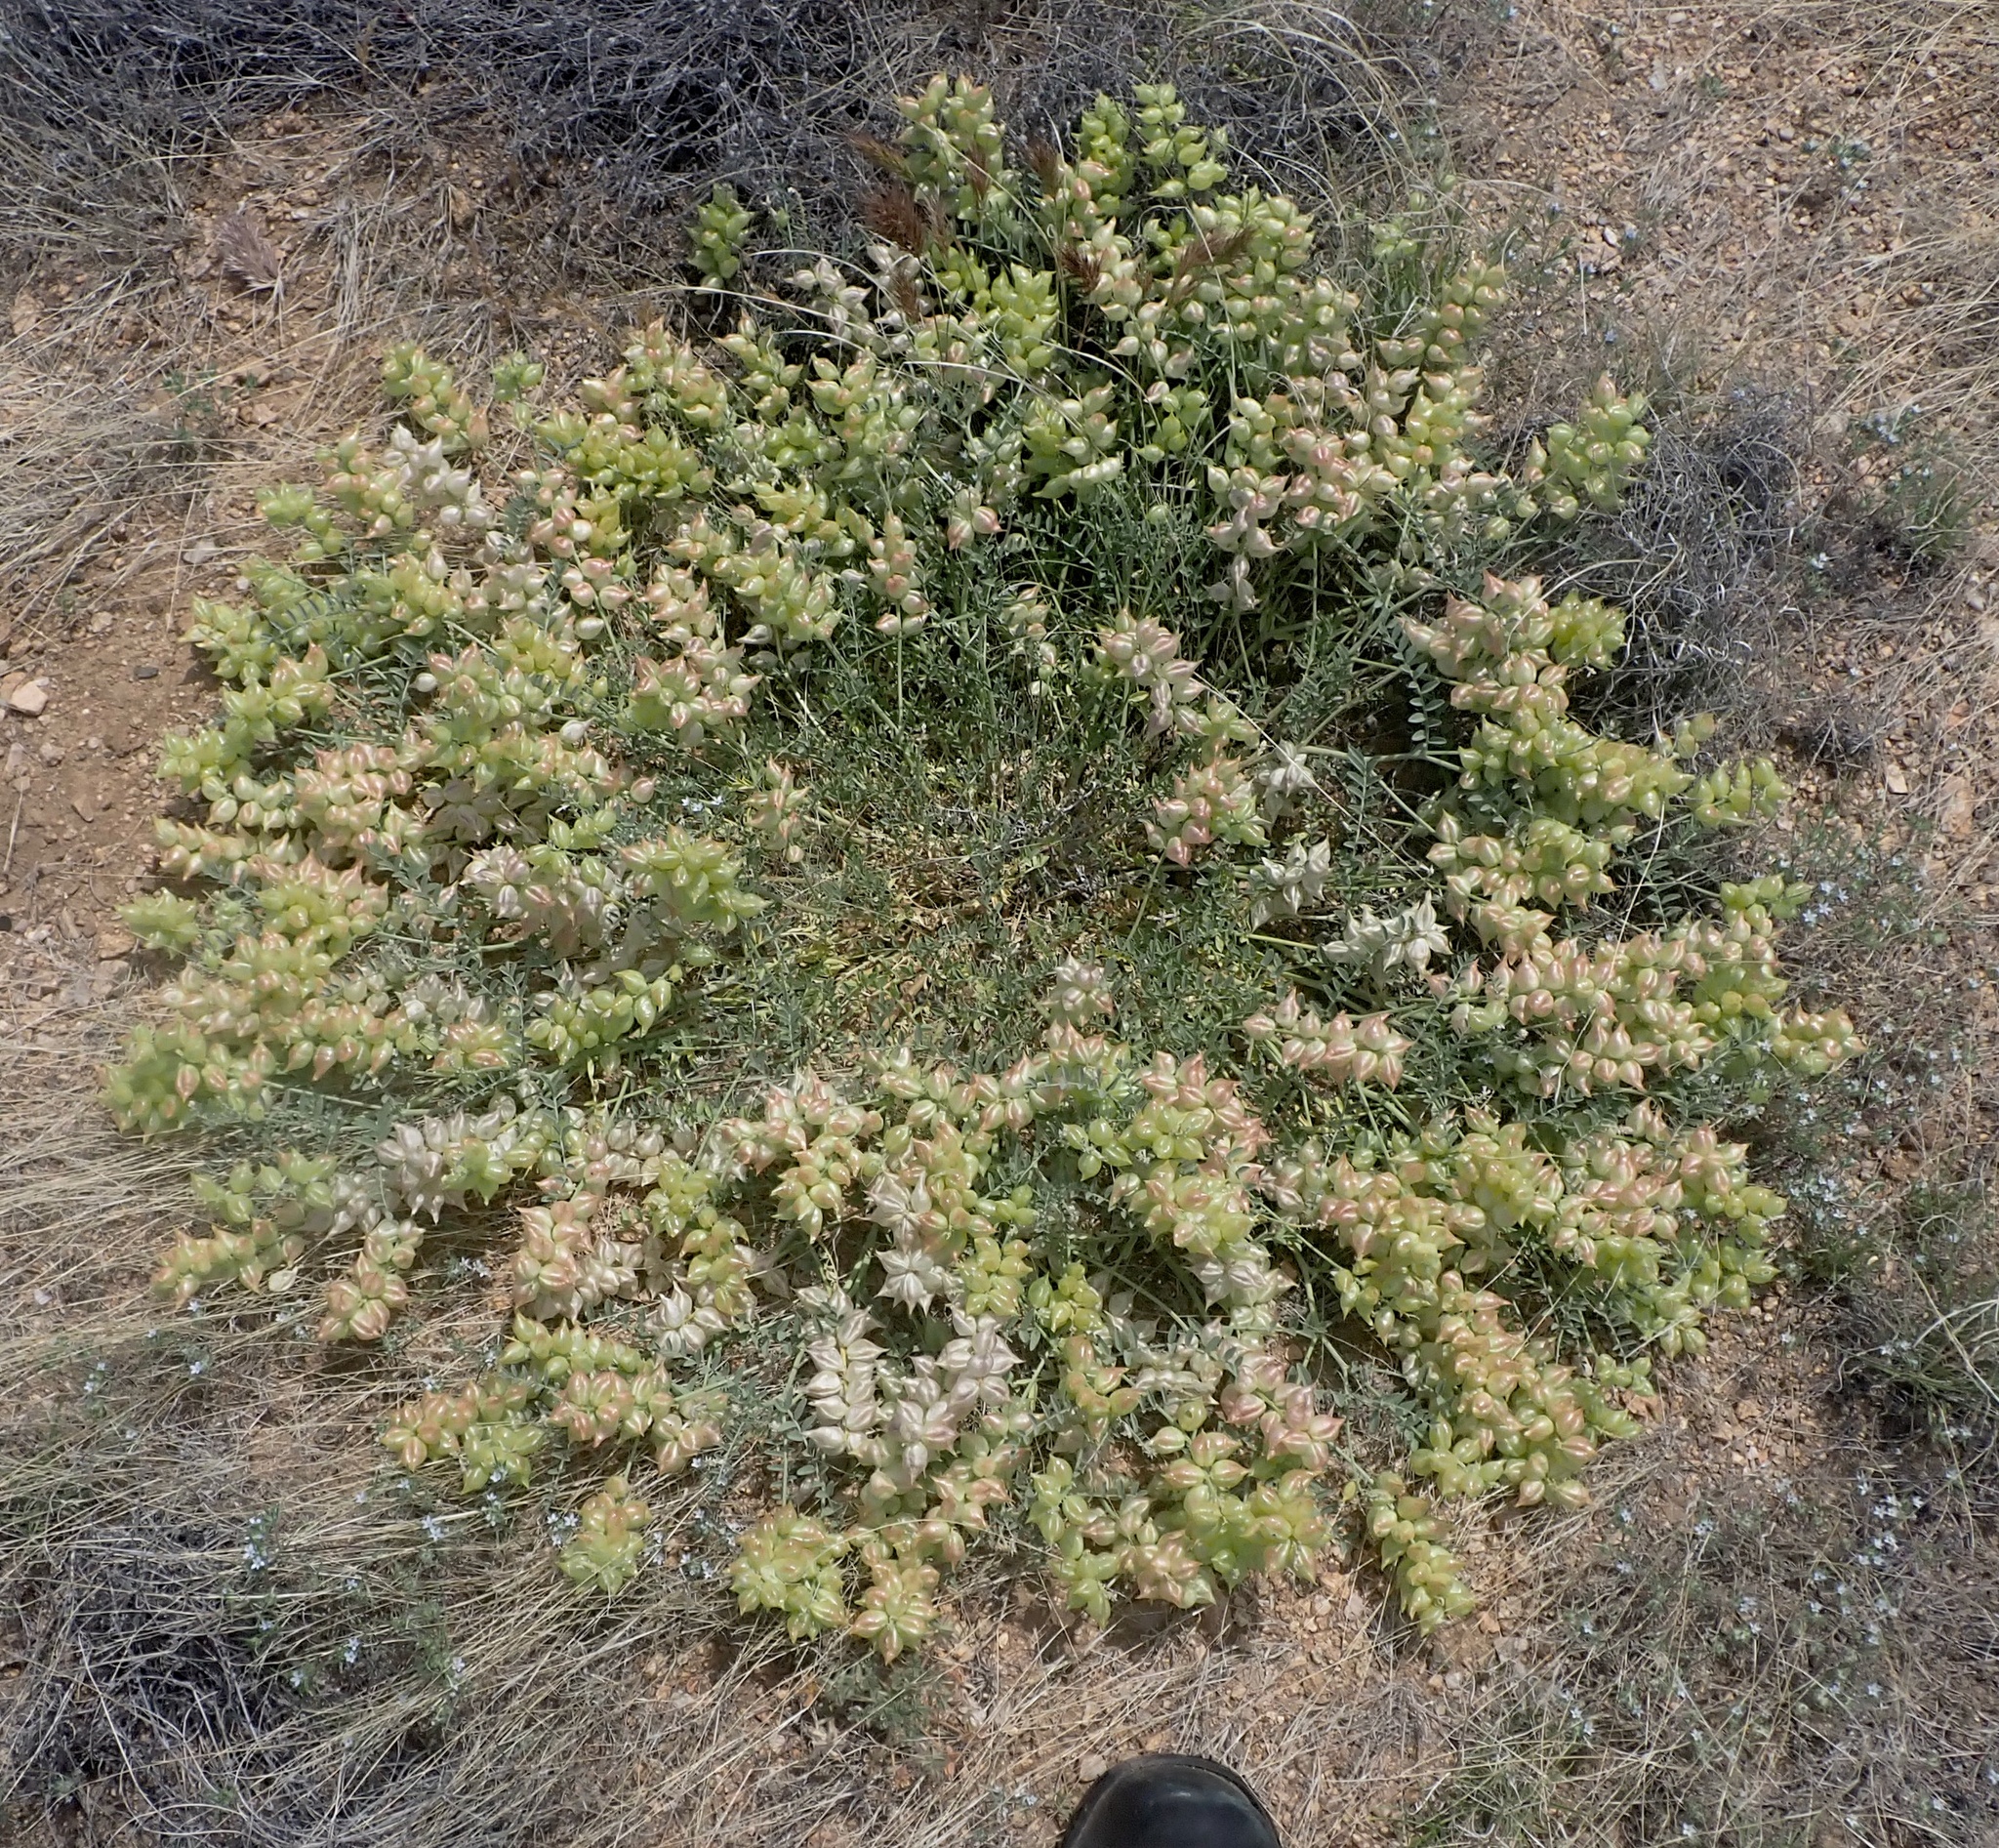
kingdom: Plantae
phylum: Tracheophyta
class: Magnoliopsida
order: Fabales
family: Fabaceae
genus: Astragalus
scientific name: Astragalus lentiginosus
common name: Freckled milkvetch
